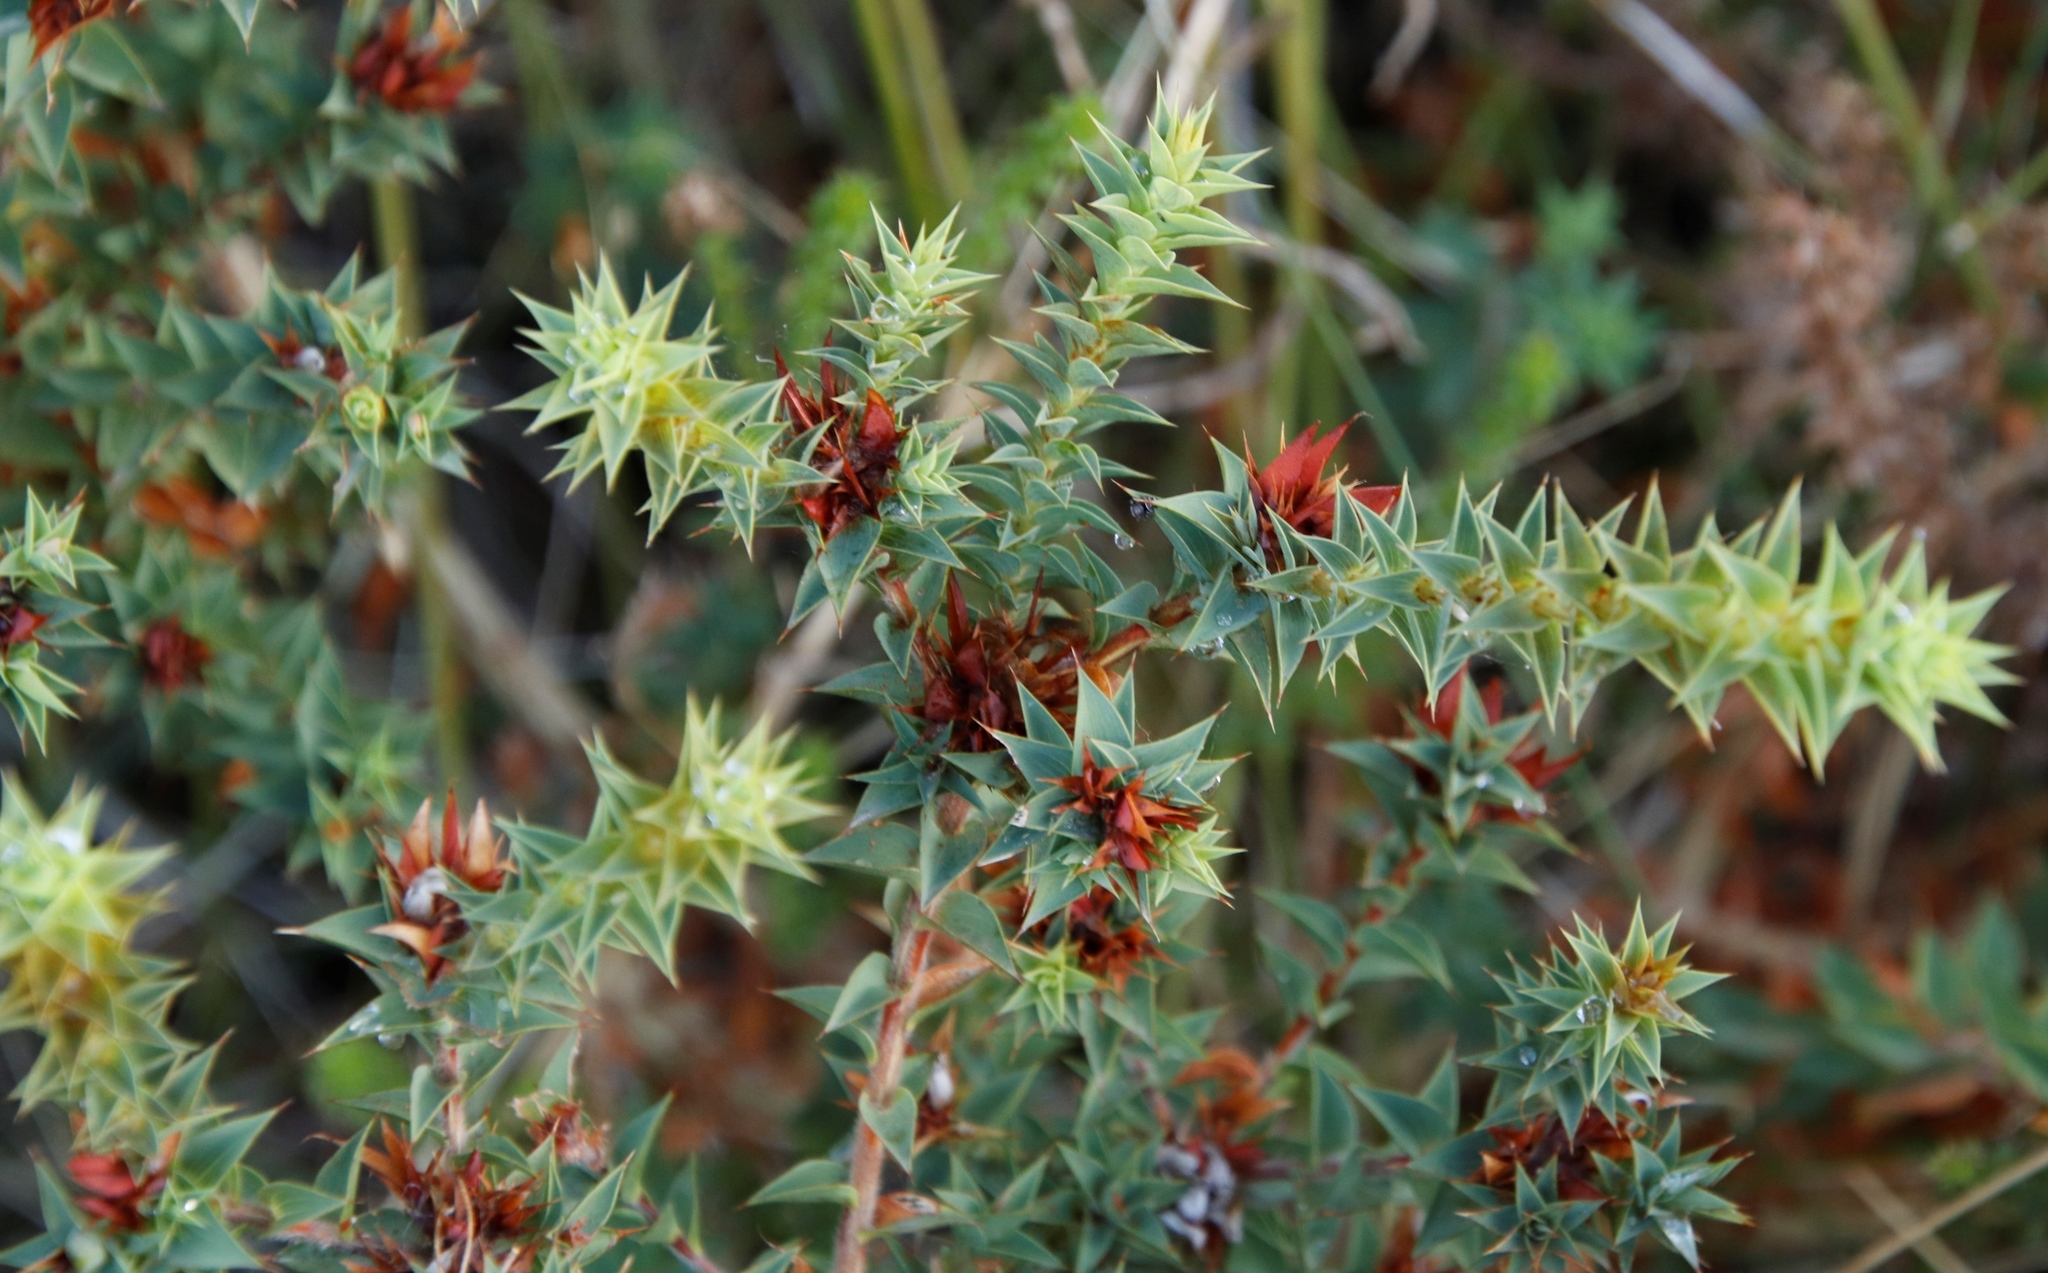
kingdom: Plantae
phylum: Tracheophyta
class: Magnoliopsida
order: Fabales
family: Fabaceae
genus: Aspalathus
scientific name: Aspalathus cordata
